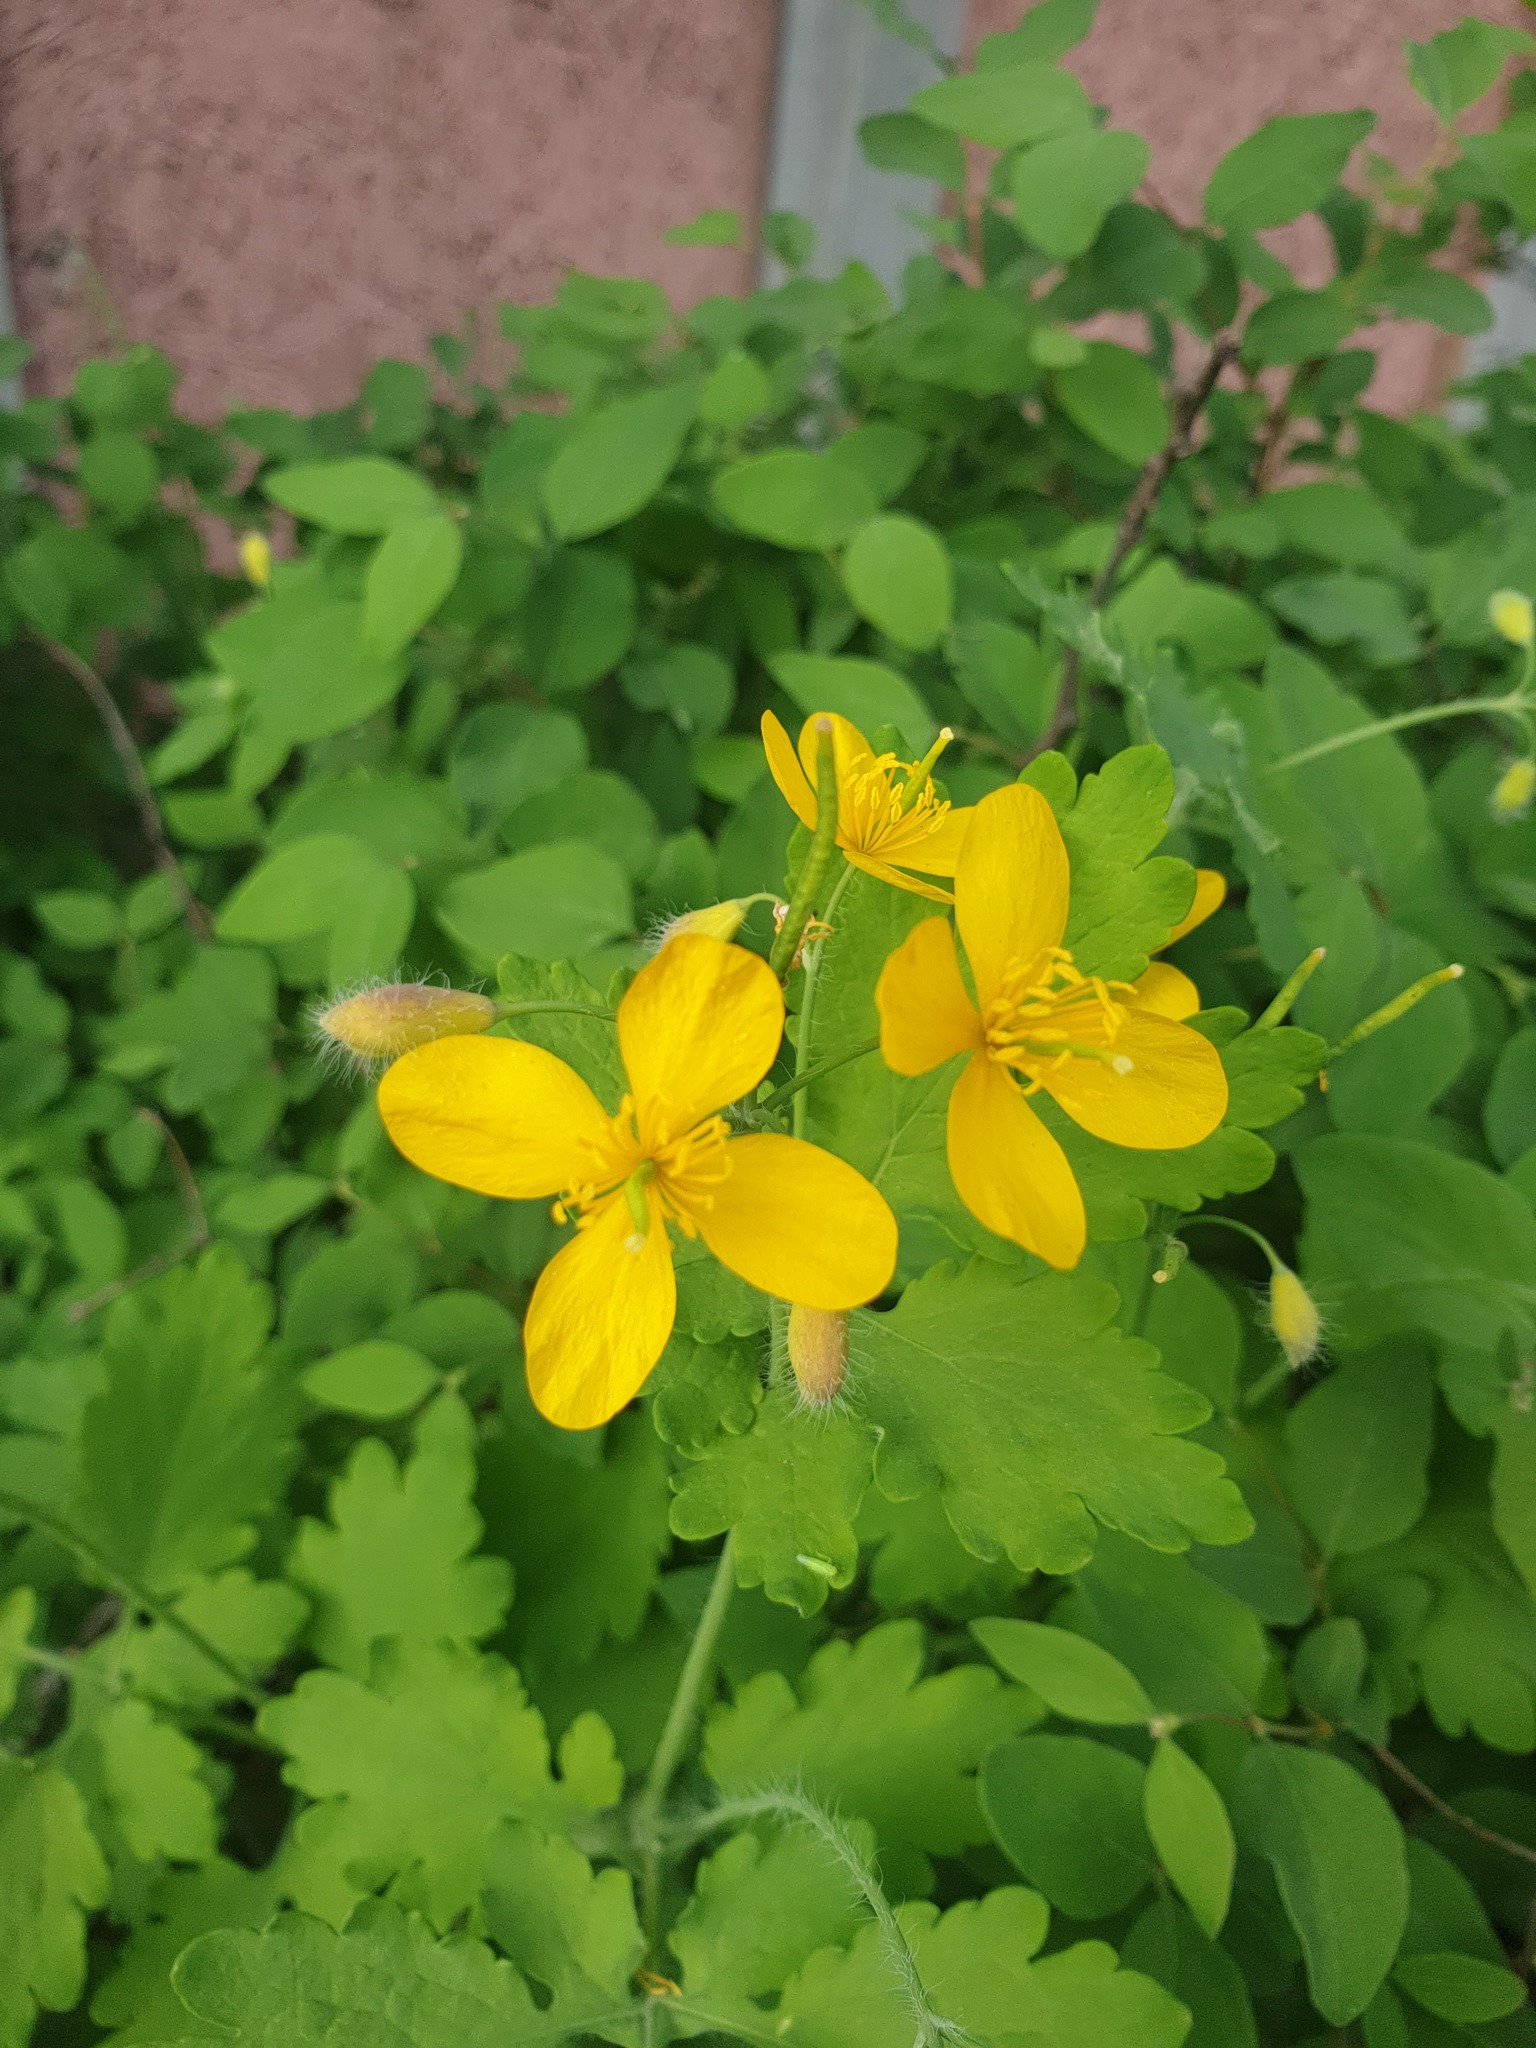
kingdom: Plantae
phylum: Tracheophyta
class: Magnoliopsida
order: Ranunculales
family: Papaveraceae
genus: Chelidonium
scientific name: Chelidonium majus
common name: Greater celandine
